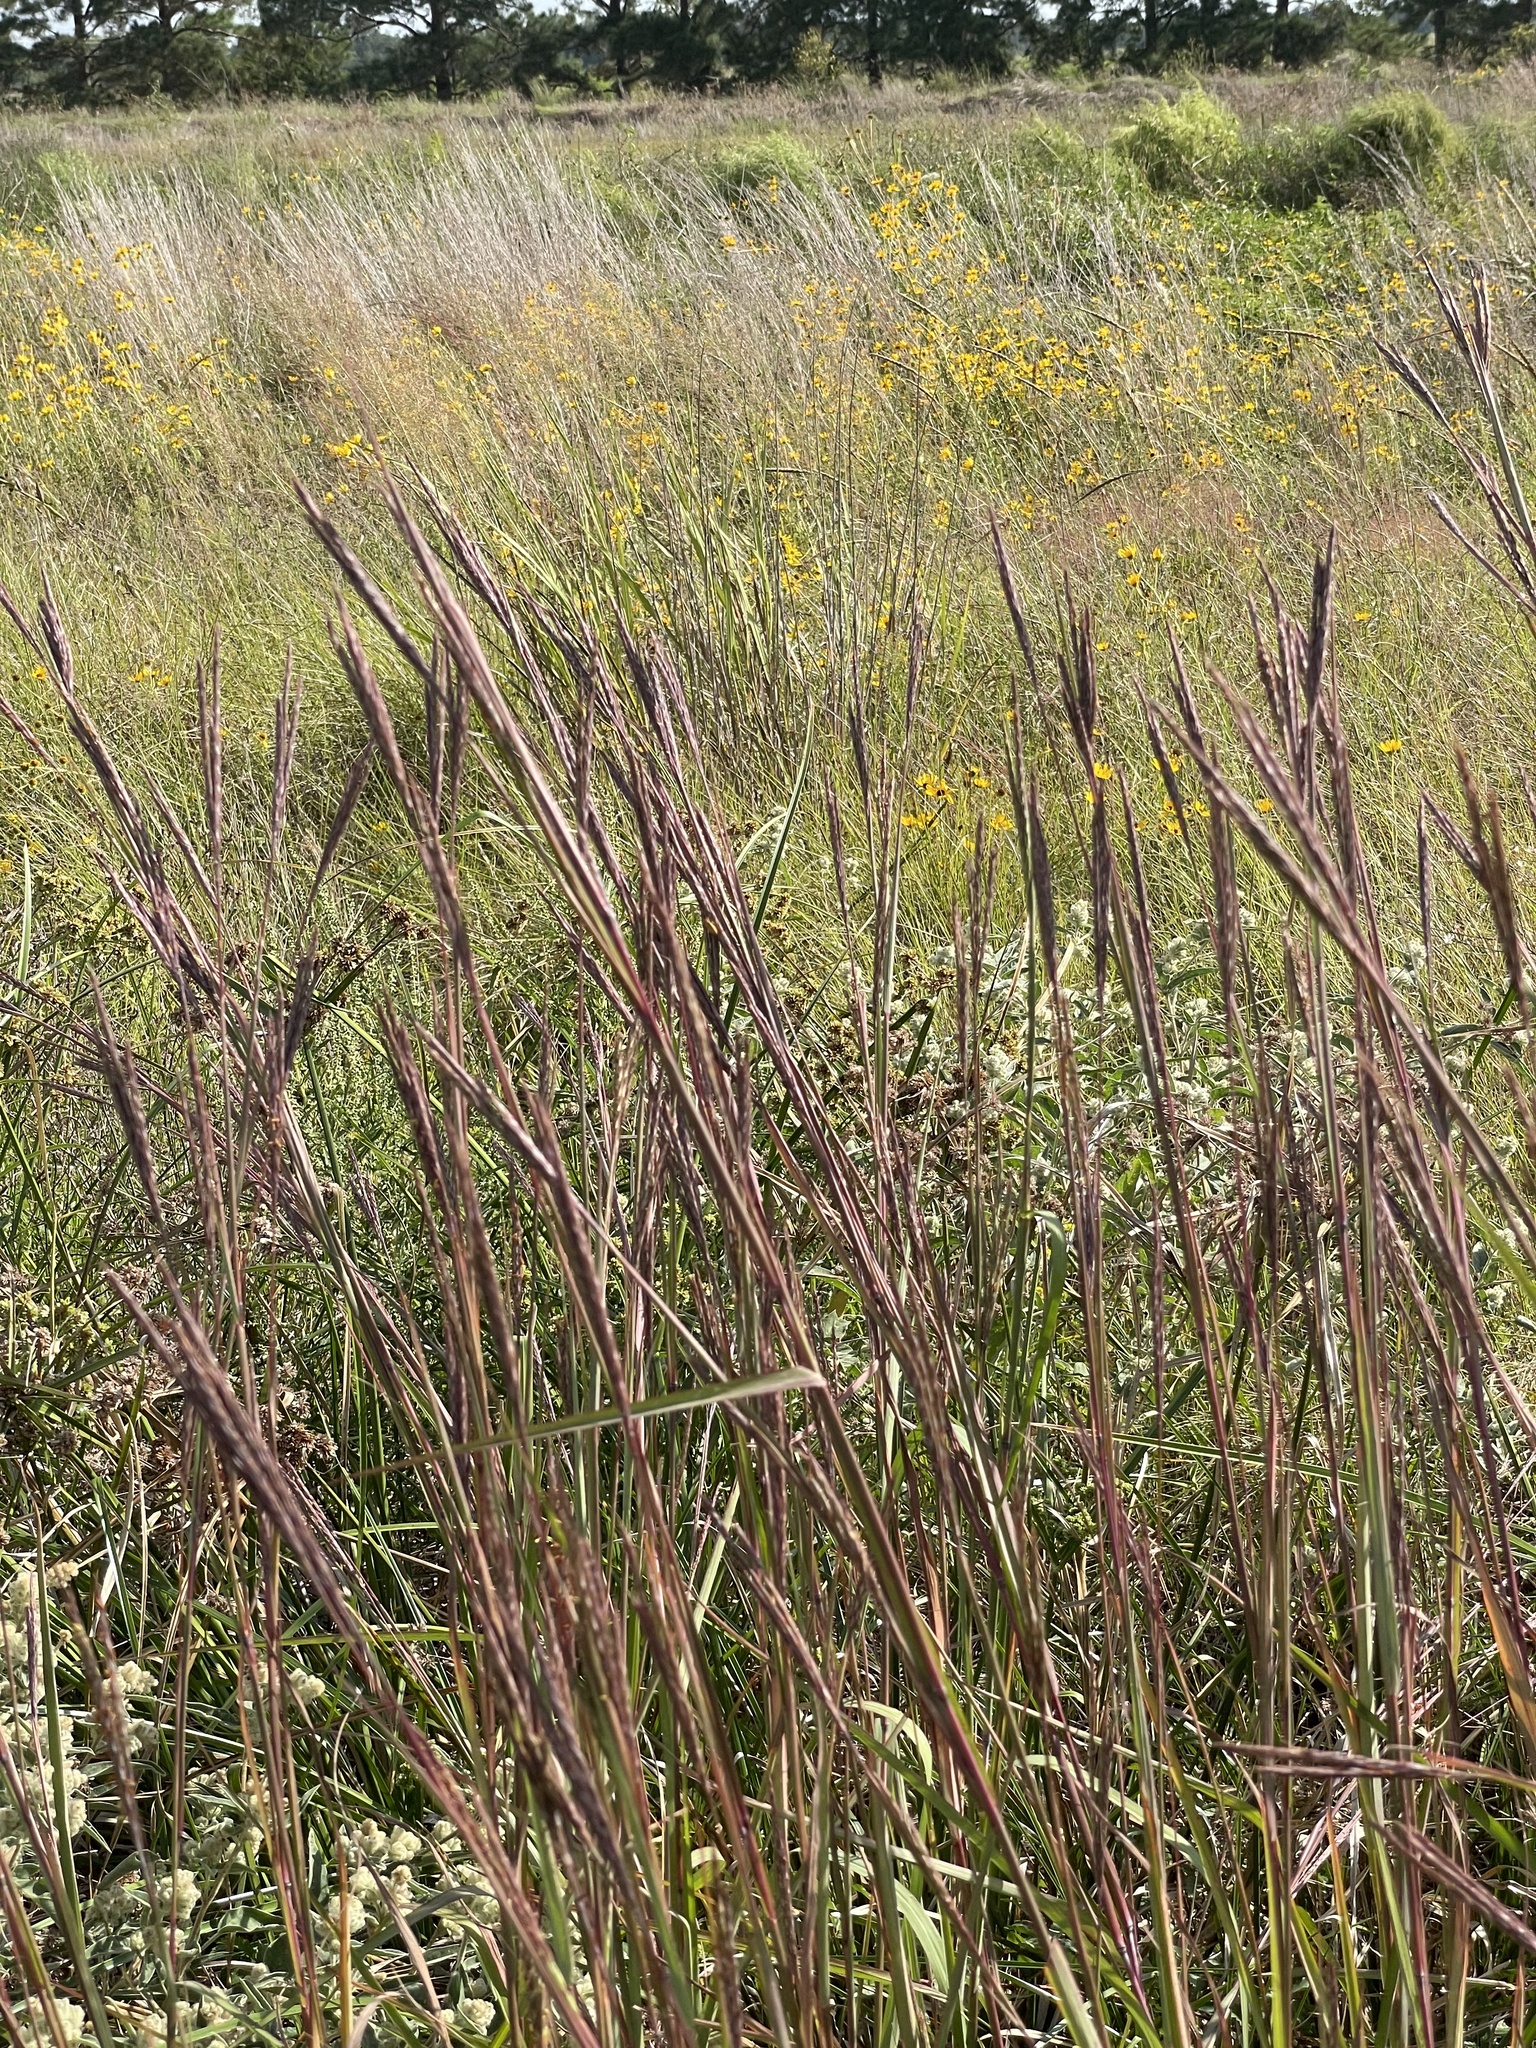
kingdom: Plantae
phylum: Tracheophyta
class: Liliopsida
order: Poales
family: Poaceae
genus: Andropogon
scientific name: Andropogon gerardi
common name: Big bluestem
